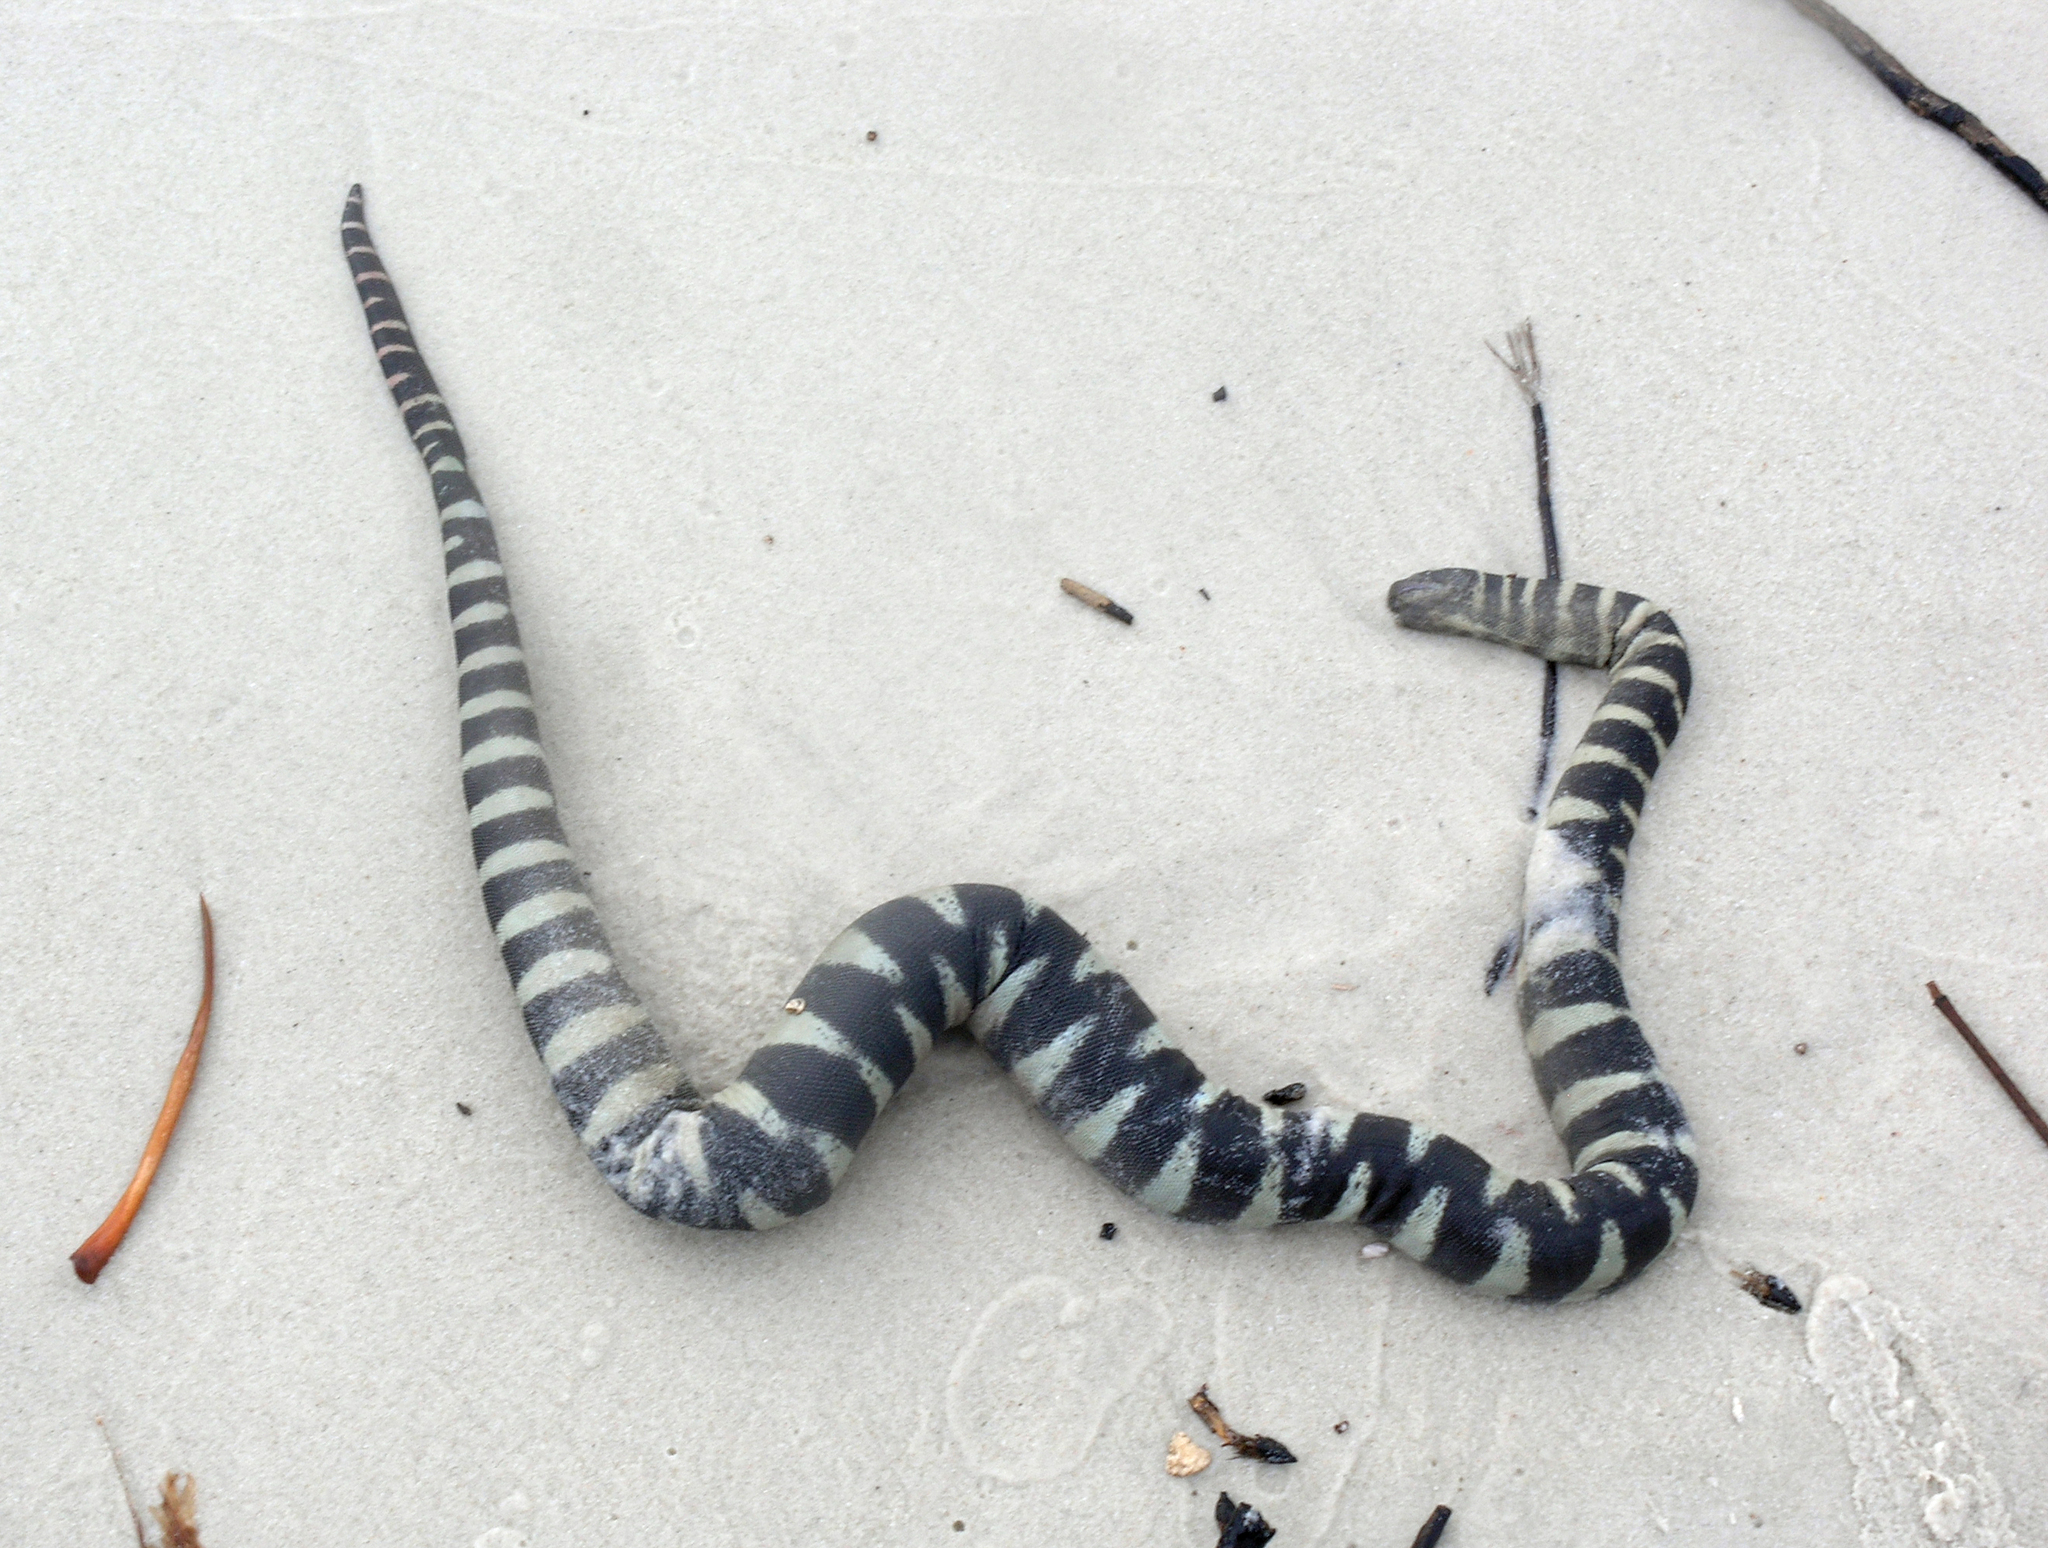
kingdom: Animalia
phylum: Chordata
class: Squamata
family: Acrochordidae
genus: Acrochordus
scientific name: Acrochordus granulatus
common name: Little filesnake
